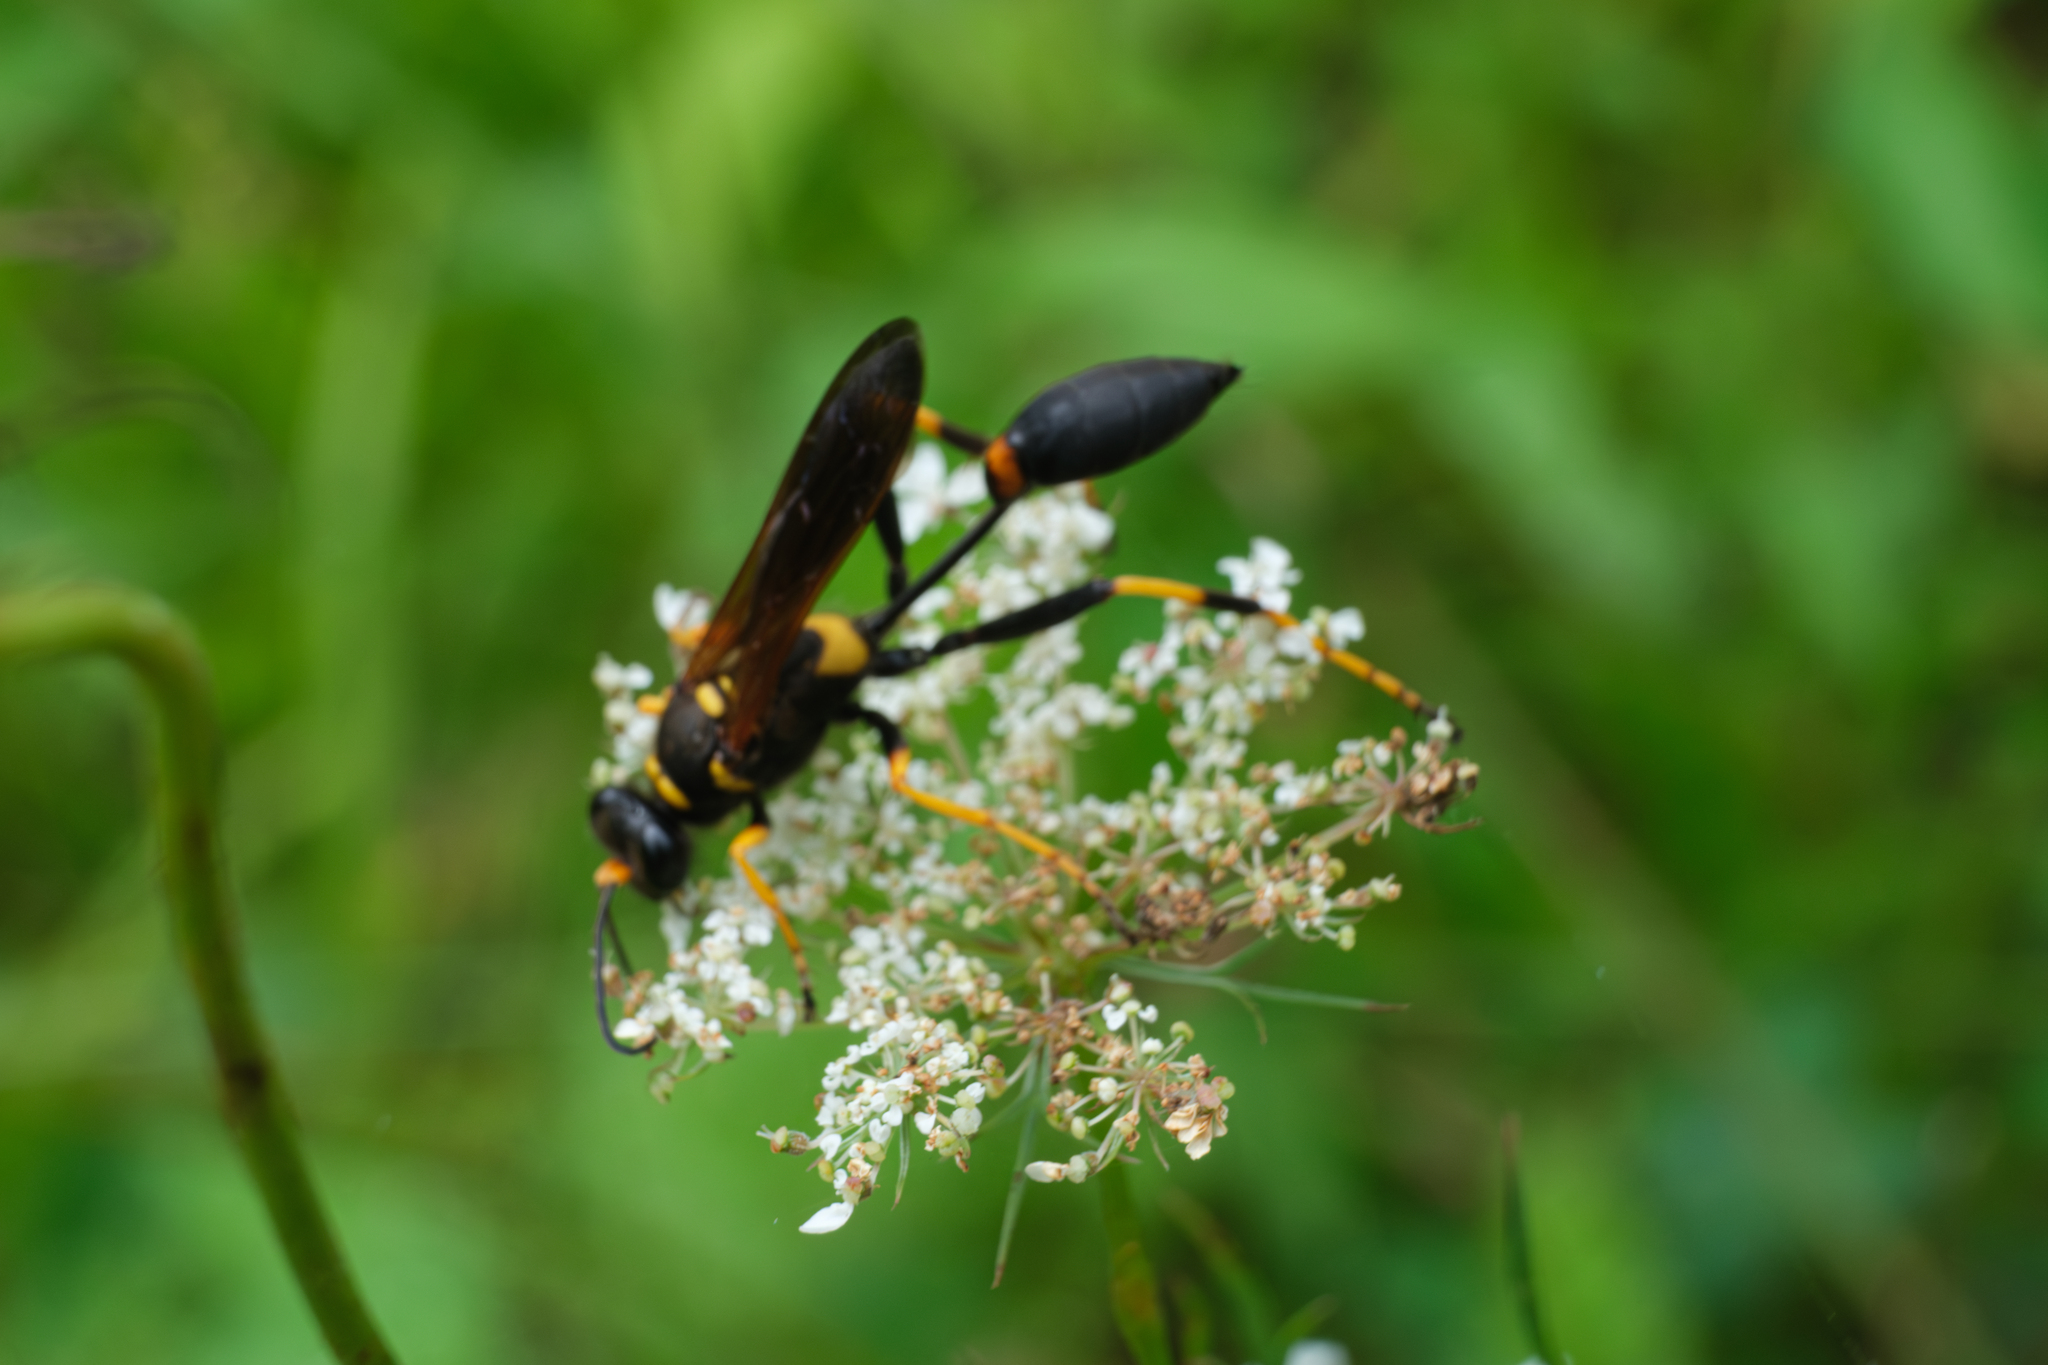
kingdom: Animalia
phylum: Arthropoda
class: Insecta
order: Hymenoptera
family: Sphecidae
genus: Sceliphron
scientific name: Sceliphron caementarium
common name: Mud dauber
